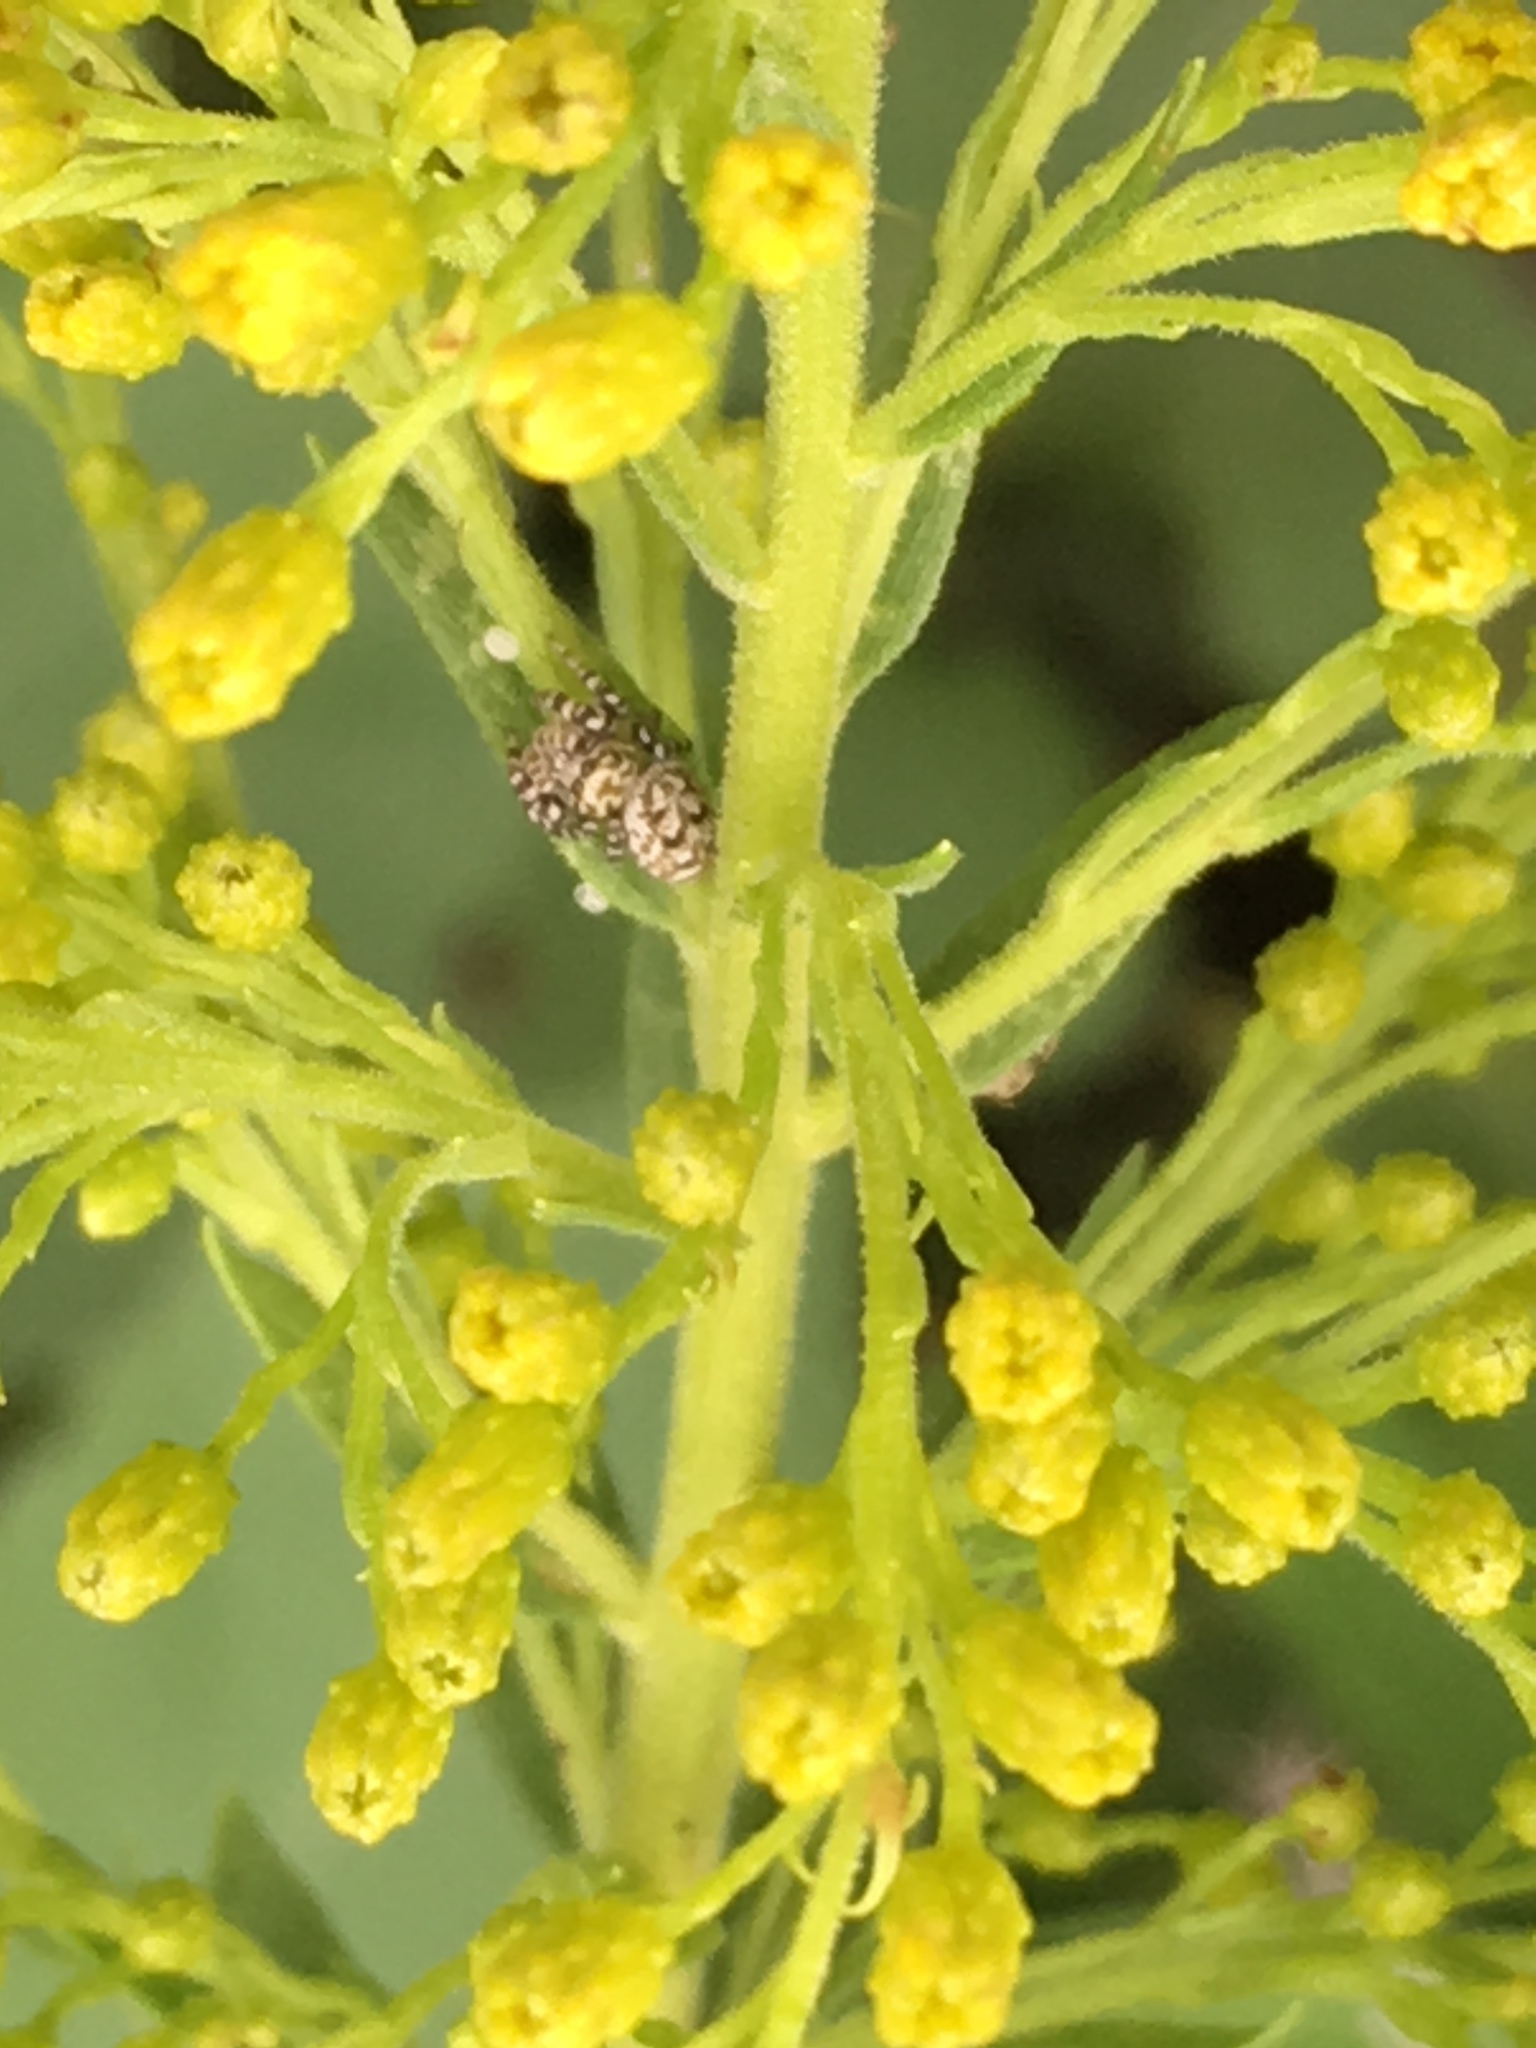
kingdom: Animalia
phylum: Arthropoda
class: Arachnida
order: Araneae
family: Salticidae
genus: Pelegrina
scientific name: Pelegrina galathea
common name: Jumping spiders
